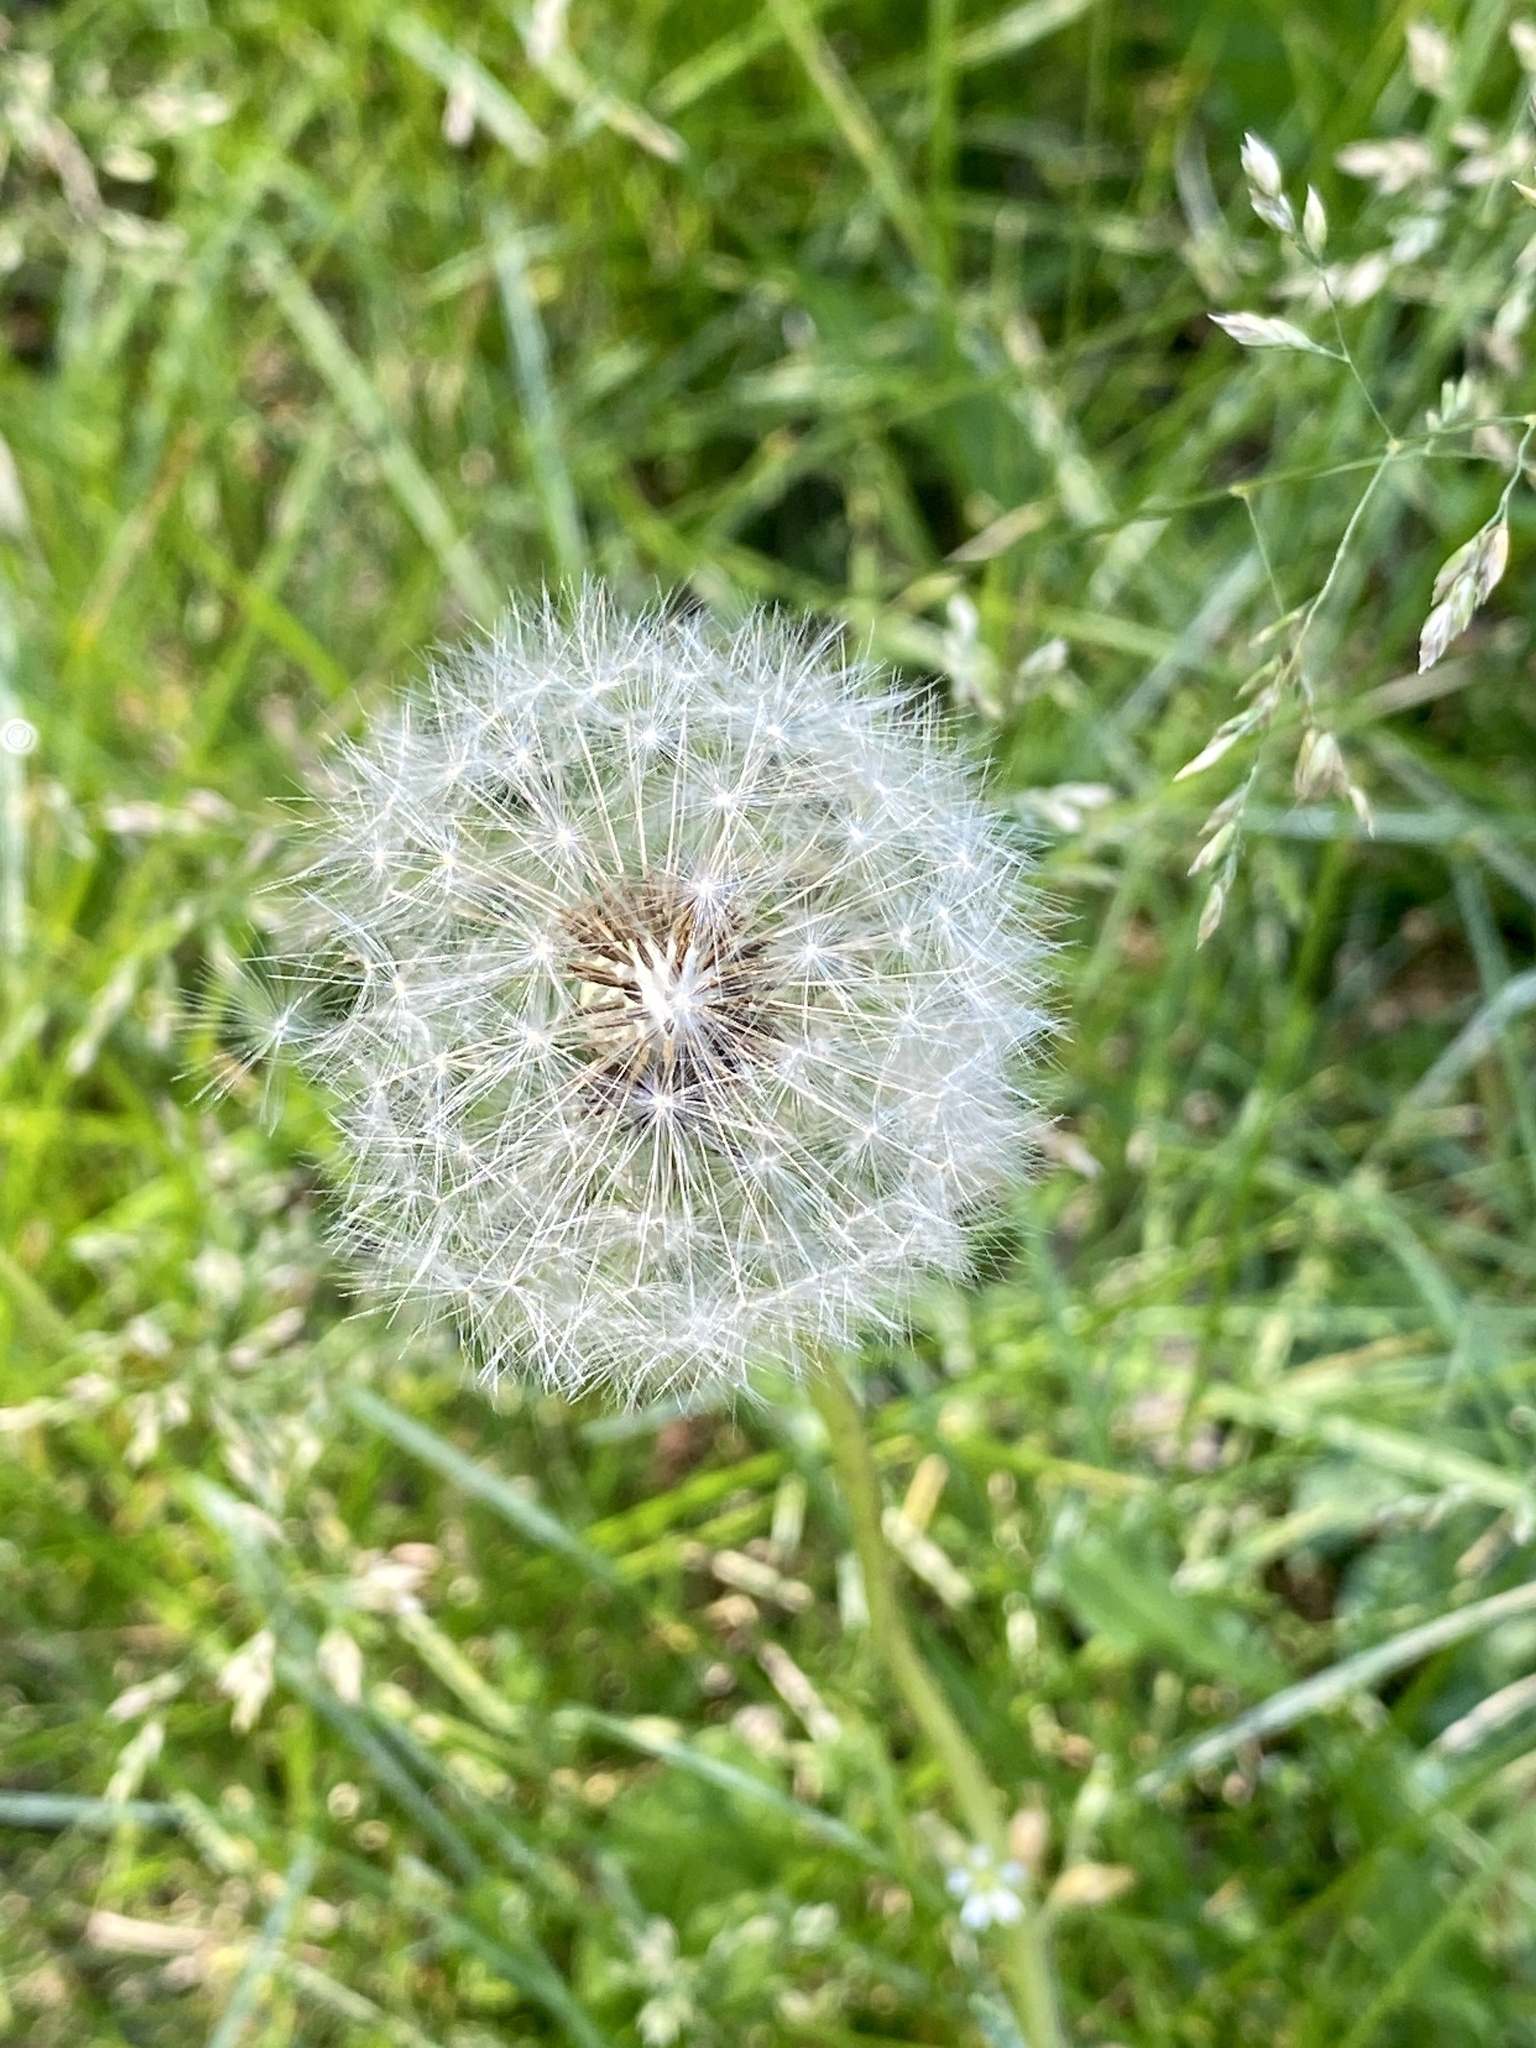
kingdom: Plantae
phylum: Tracheophyta
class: Magnoliopsida
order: Asterales
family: Asteraceae
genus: Taraxacum
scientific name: Taraxacum officinale
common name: Common dandelion
